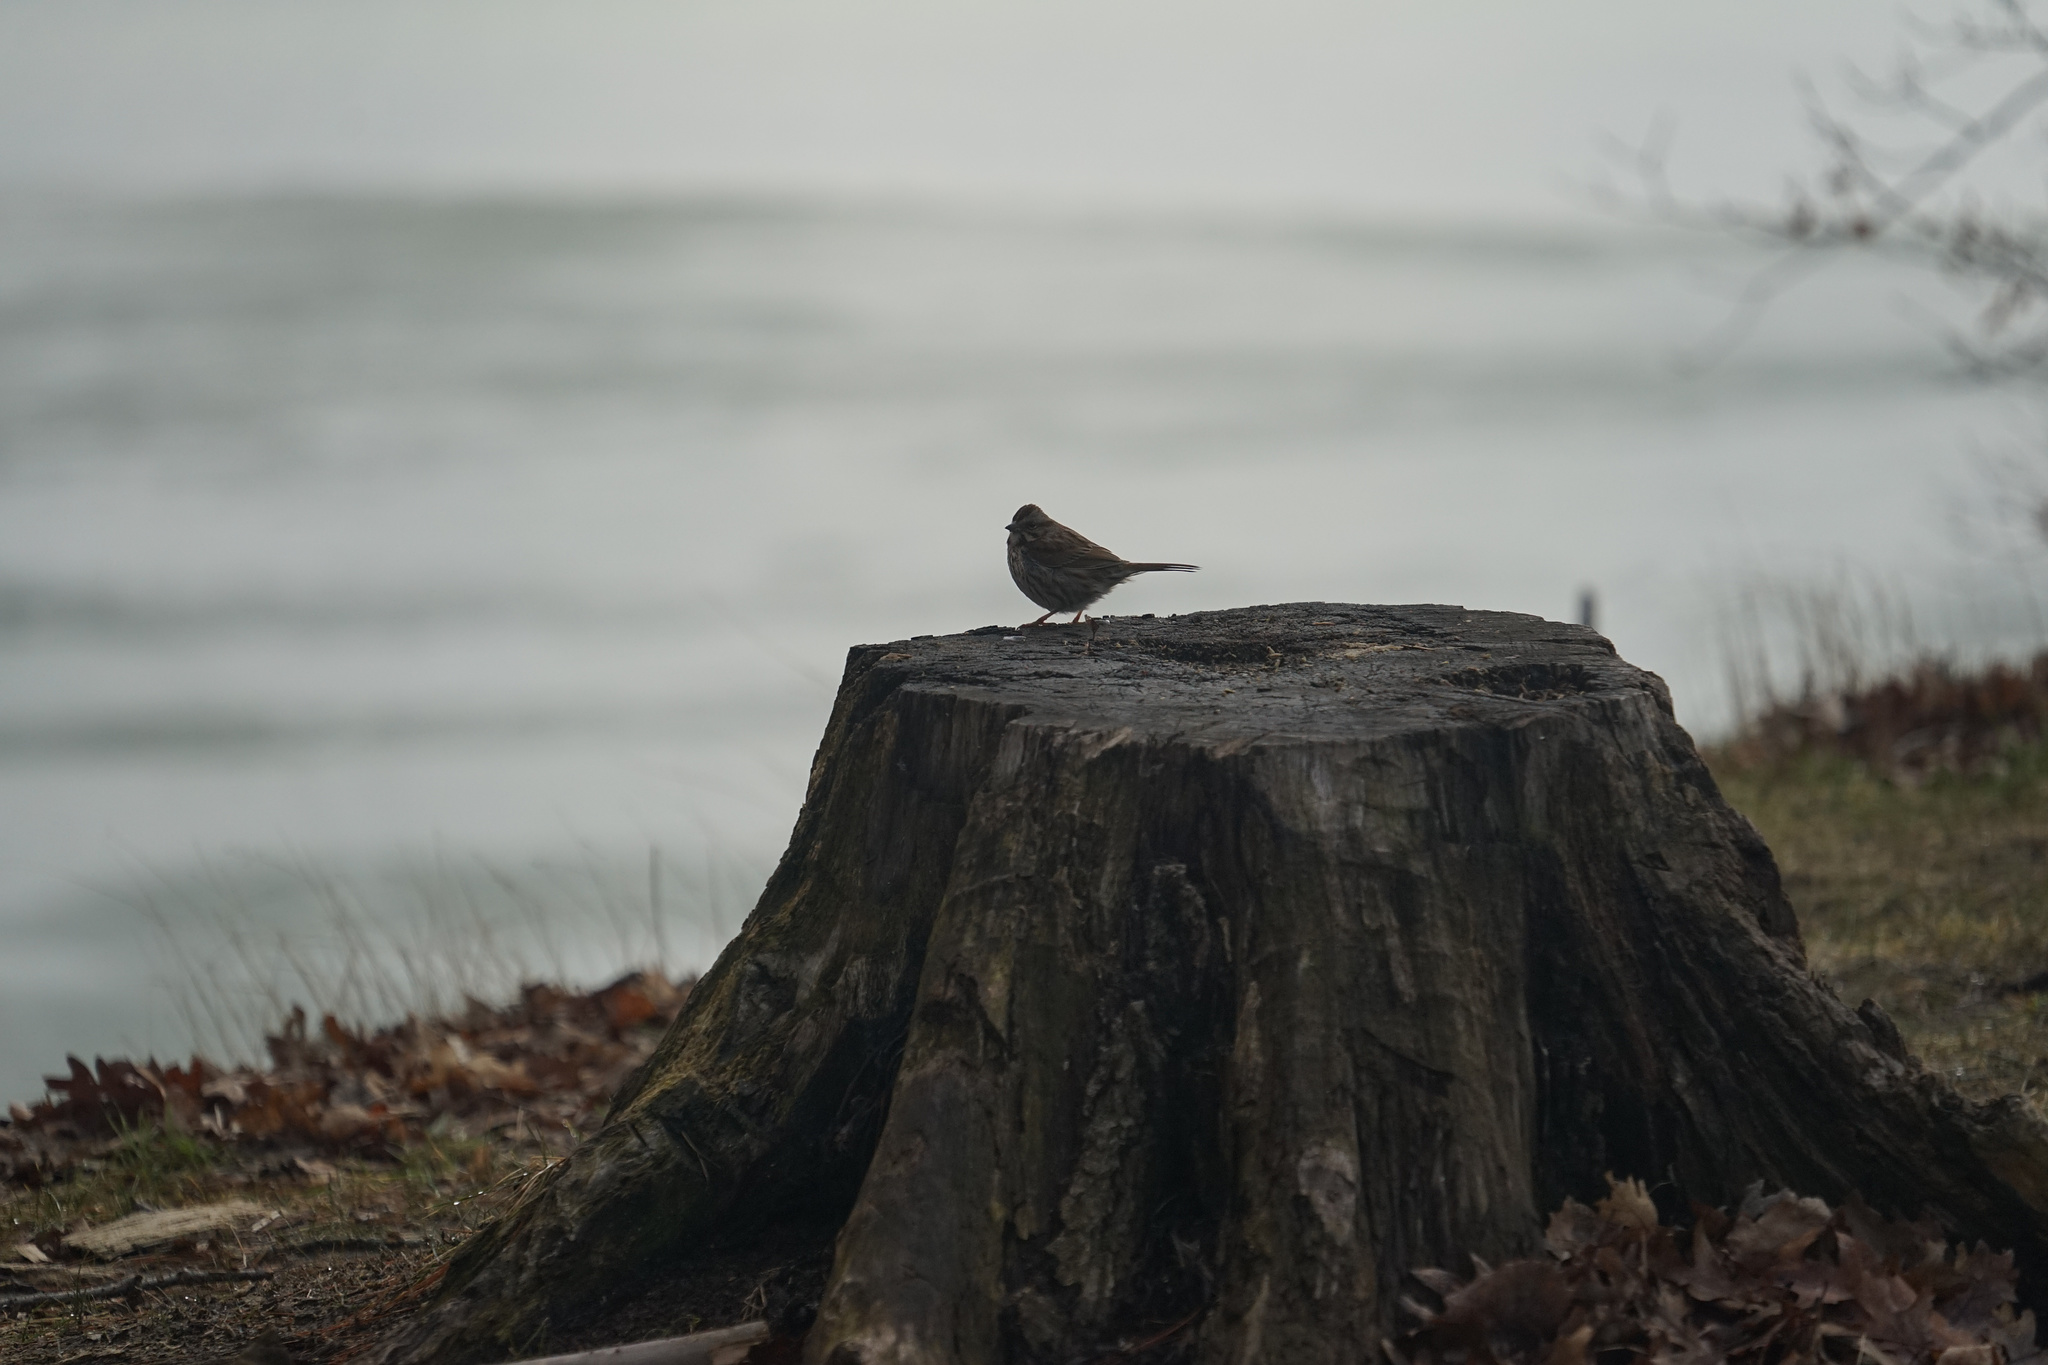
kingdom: Animalia
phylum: Chordata
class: Aves
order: Passeriformes
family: Passerellidae
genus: Melospiza
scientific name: Melospiza melodia
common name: Song sparrow
